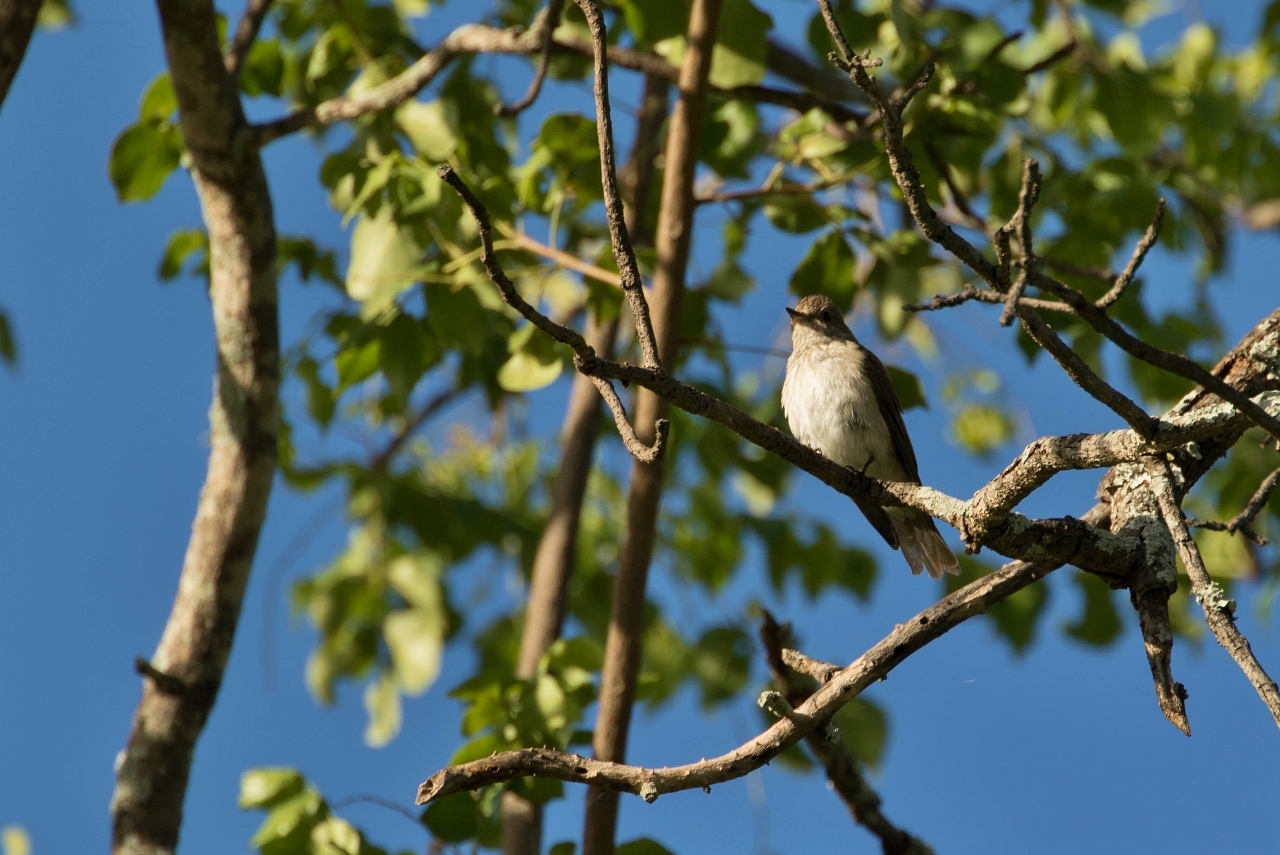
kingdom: Animalia
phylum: Chordata
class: Aves
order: Passeriformes
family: Muscicapidae
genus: Muscicapa
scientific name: Muscicapa striata
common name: Spotted flycatcher
